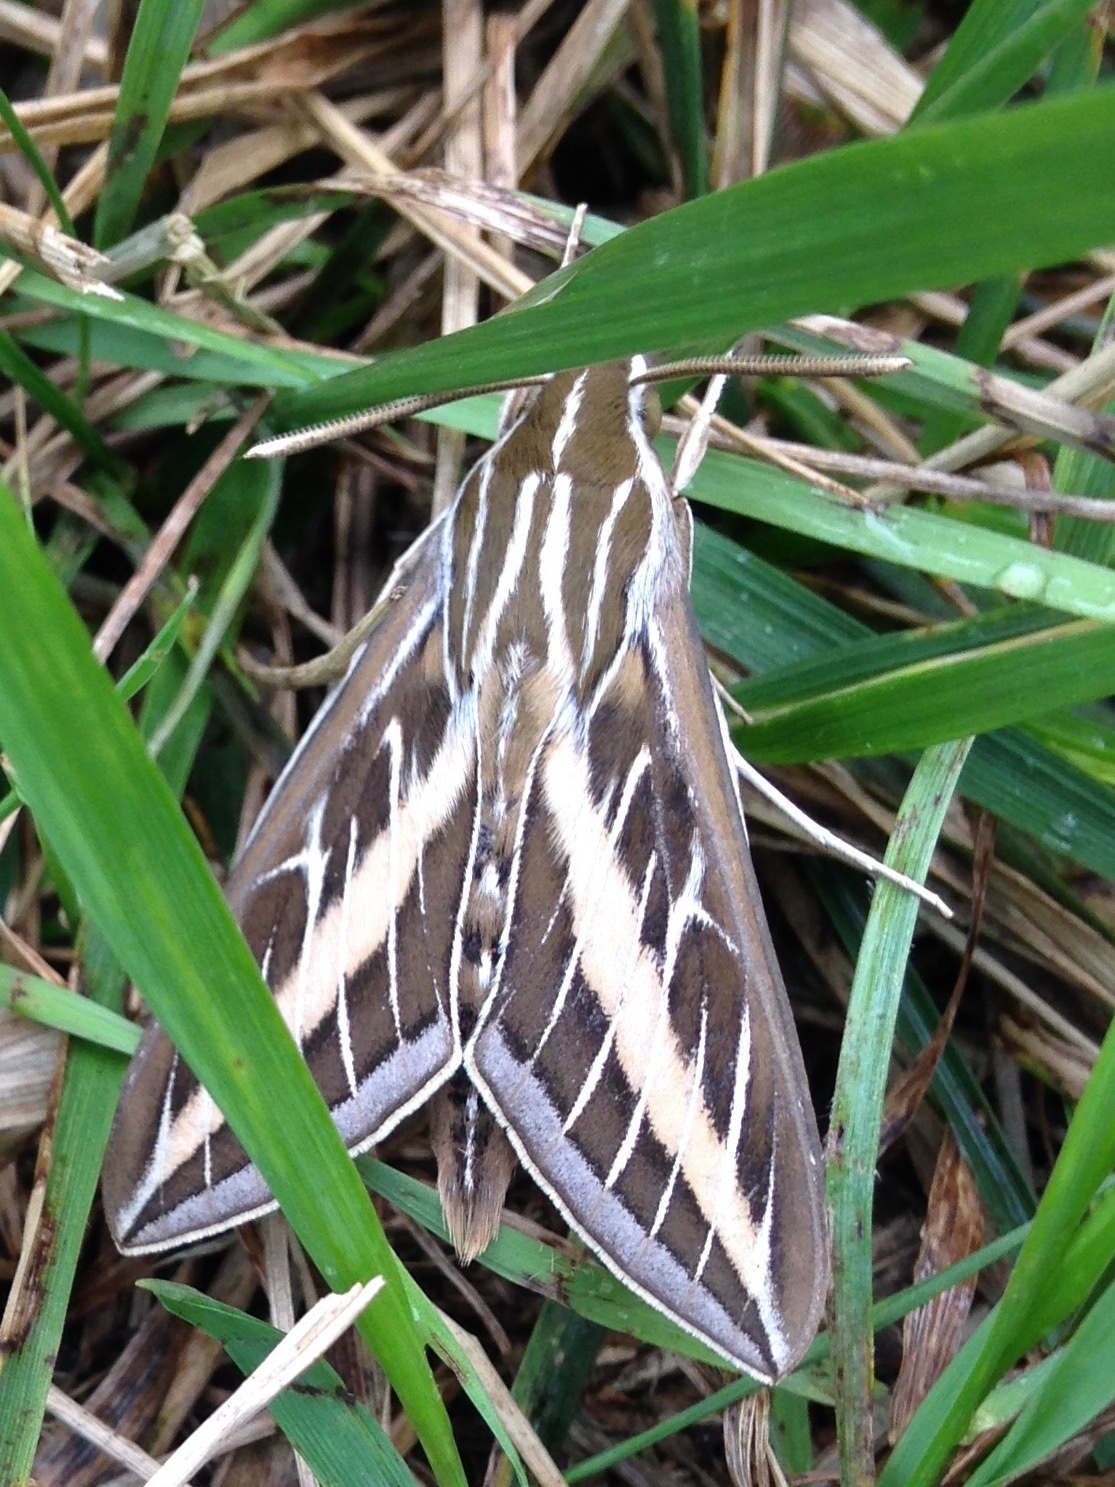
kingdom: Animalia
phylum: Arthropoda
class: Insecta
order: Lepidoptera
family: Sphingidae
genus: Hyles
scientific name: Hyles lineata
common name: White-lined sphinx
